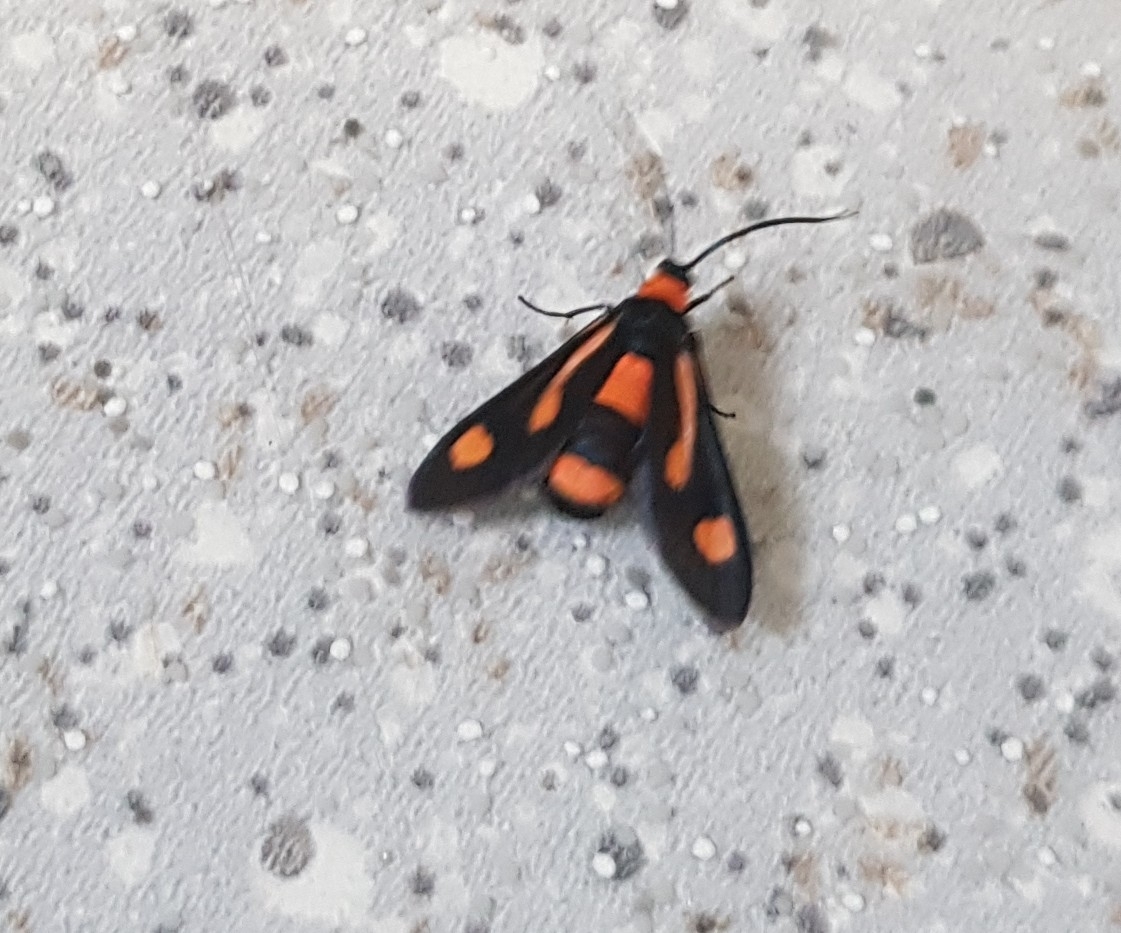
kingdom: Animalia
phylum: Arthropoda
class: Insecta
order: Lepidoptera
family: Zygaenidae
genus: Hestiochora
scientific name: Hestiochora erythrota
